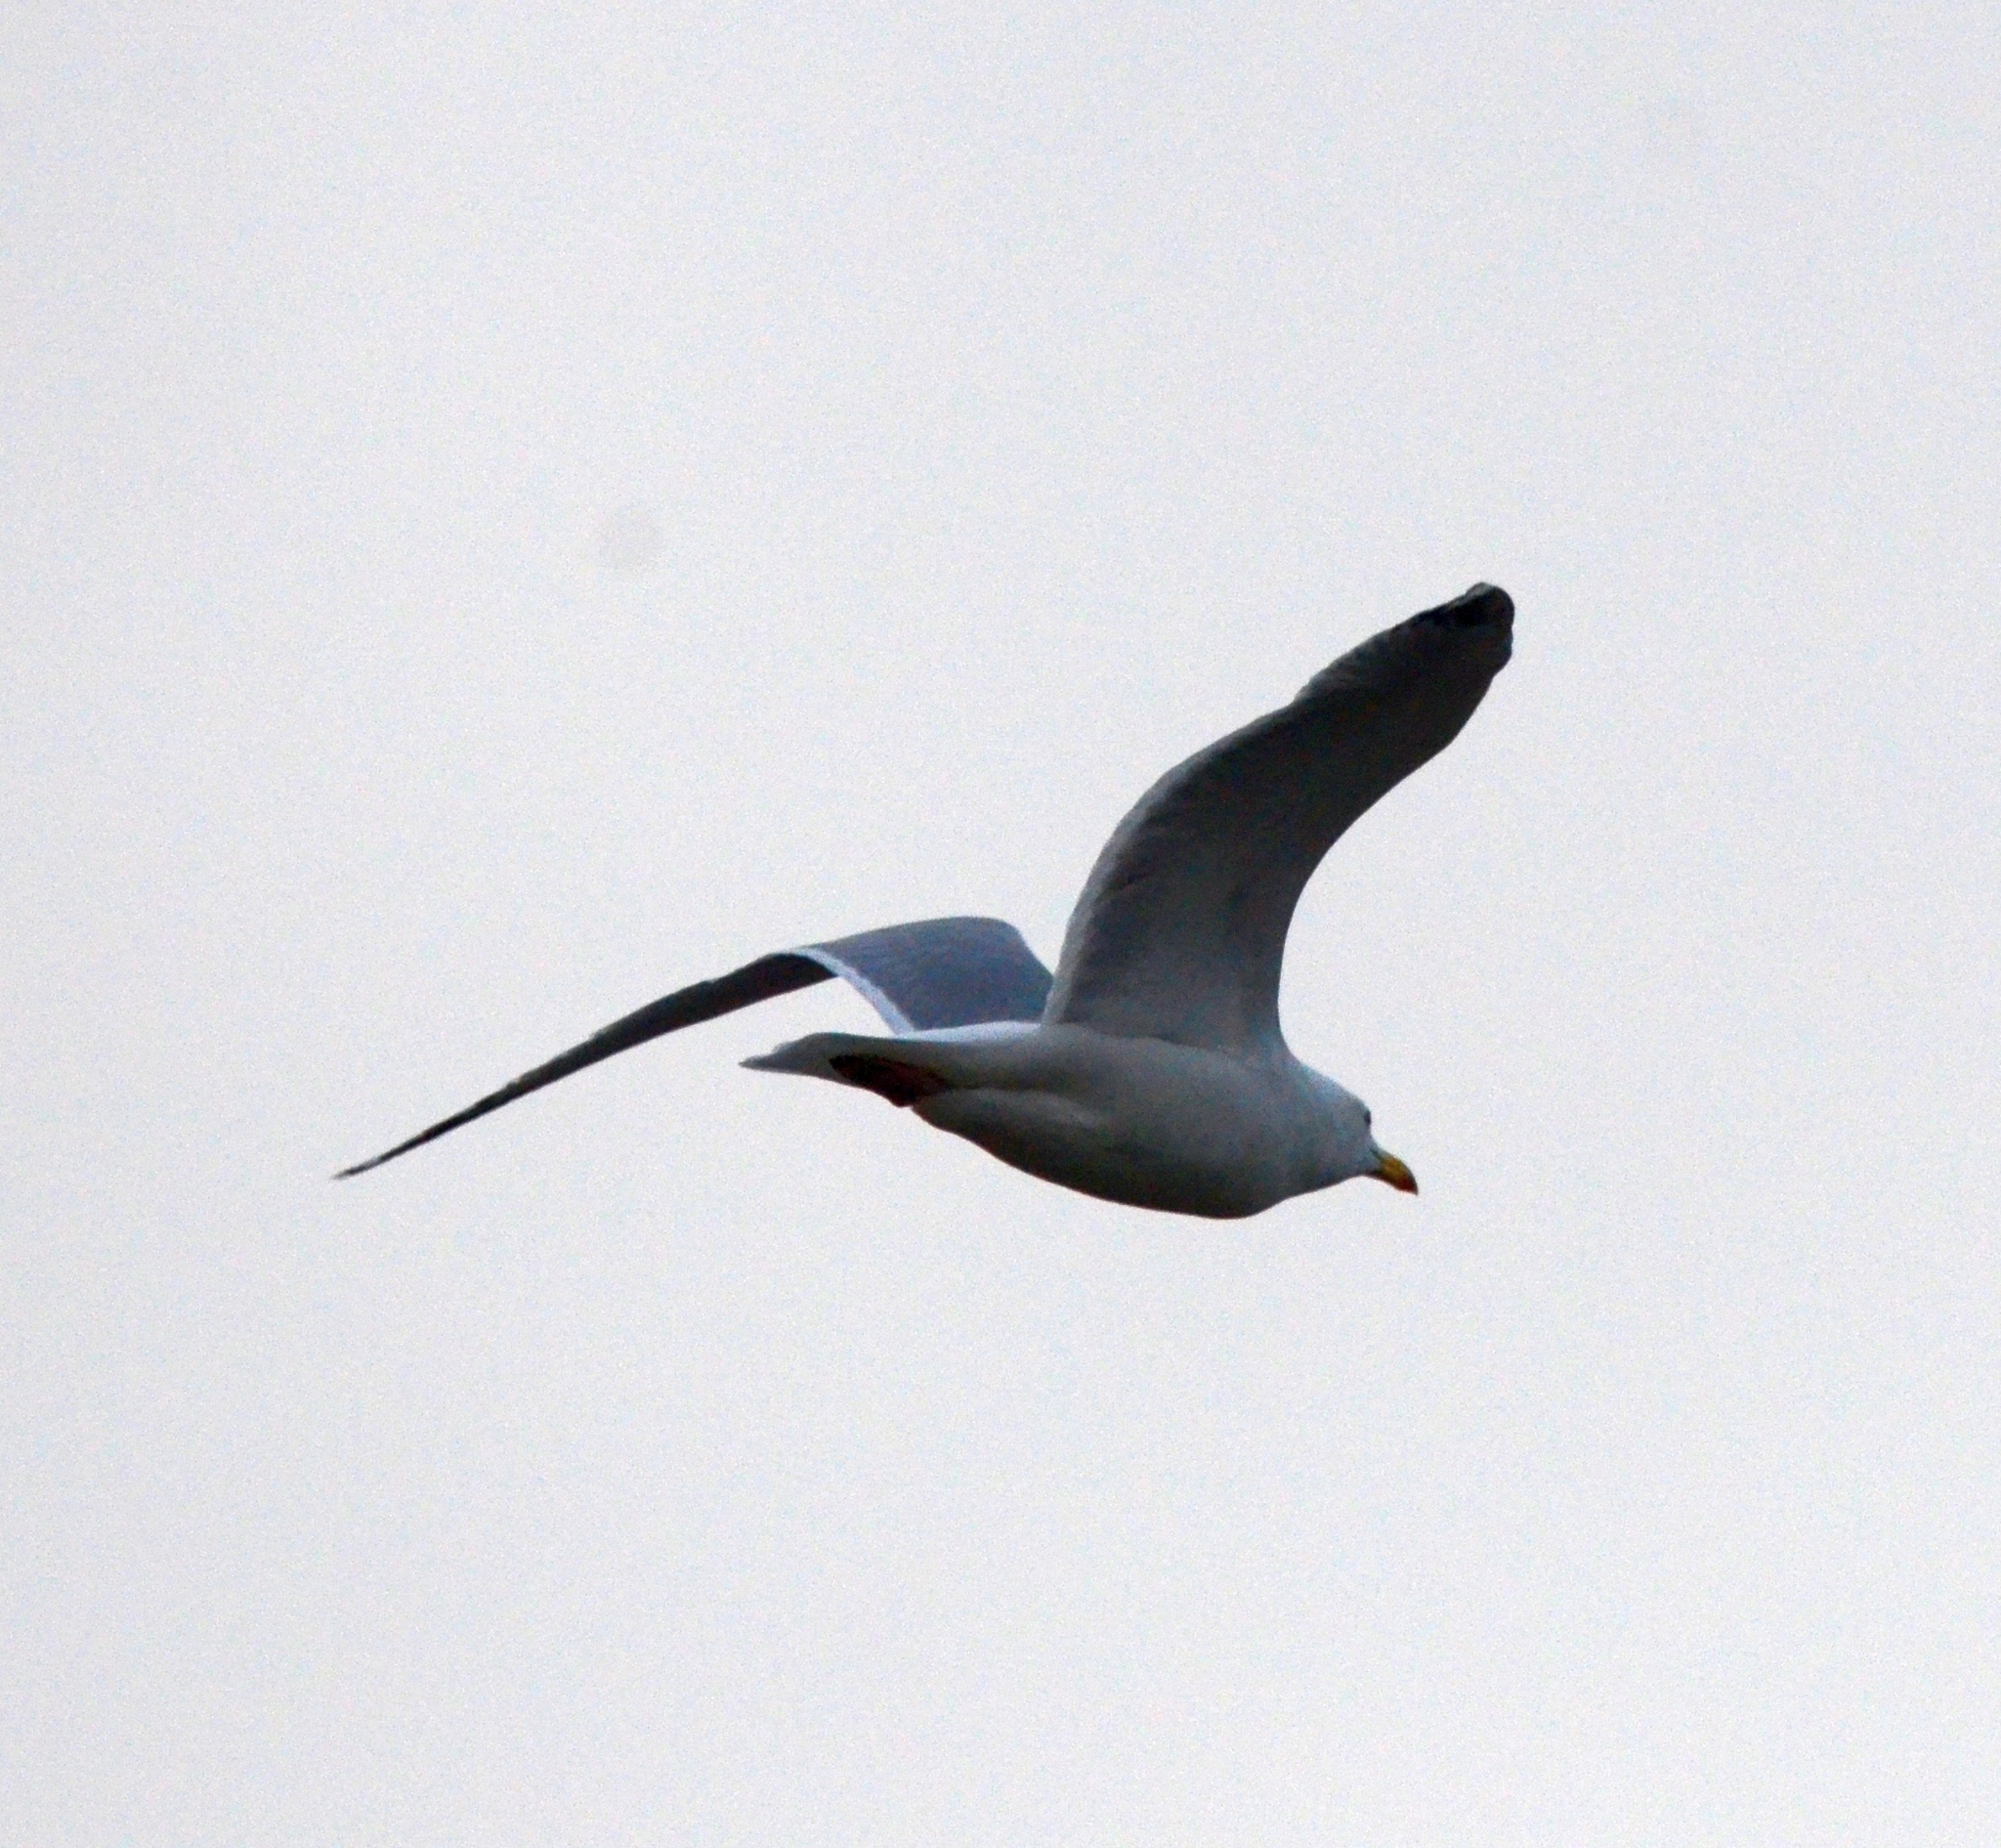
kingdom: Animalia
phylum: Chordata
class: Aves
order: Charadriiformes
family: Laridae
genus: Larus
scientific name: Larus argentatus
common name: Herring gull
